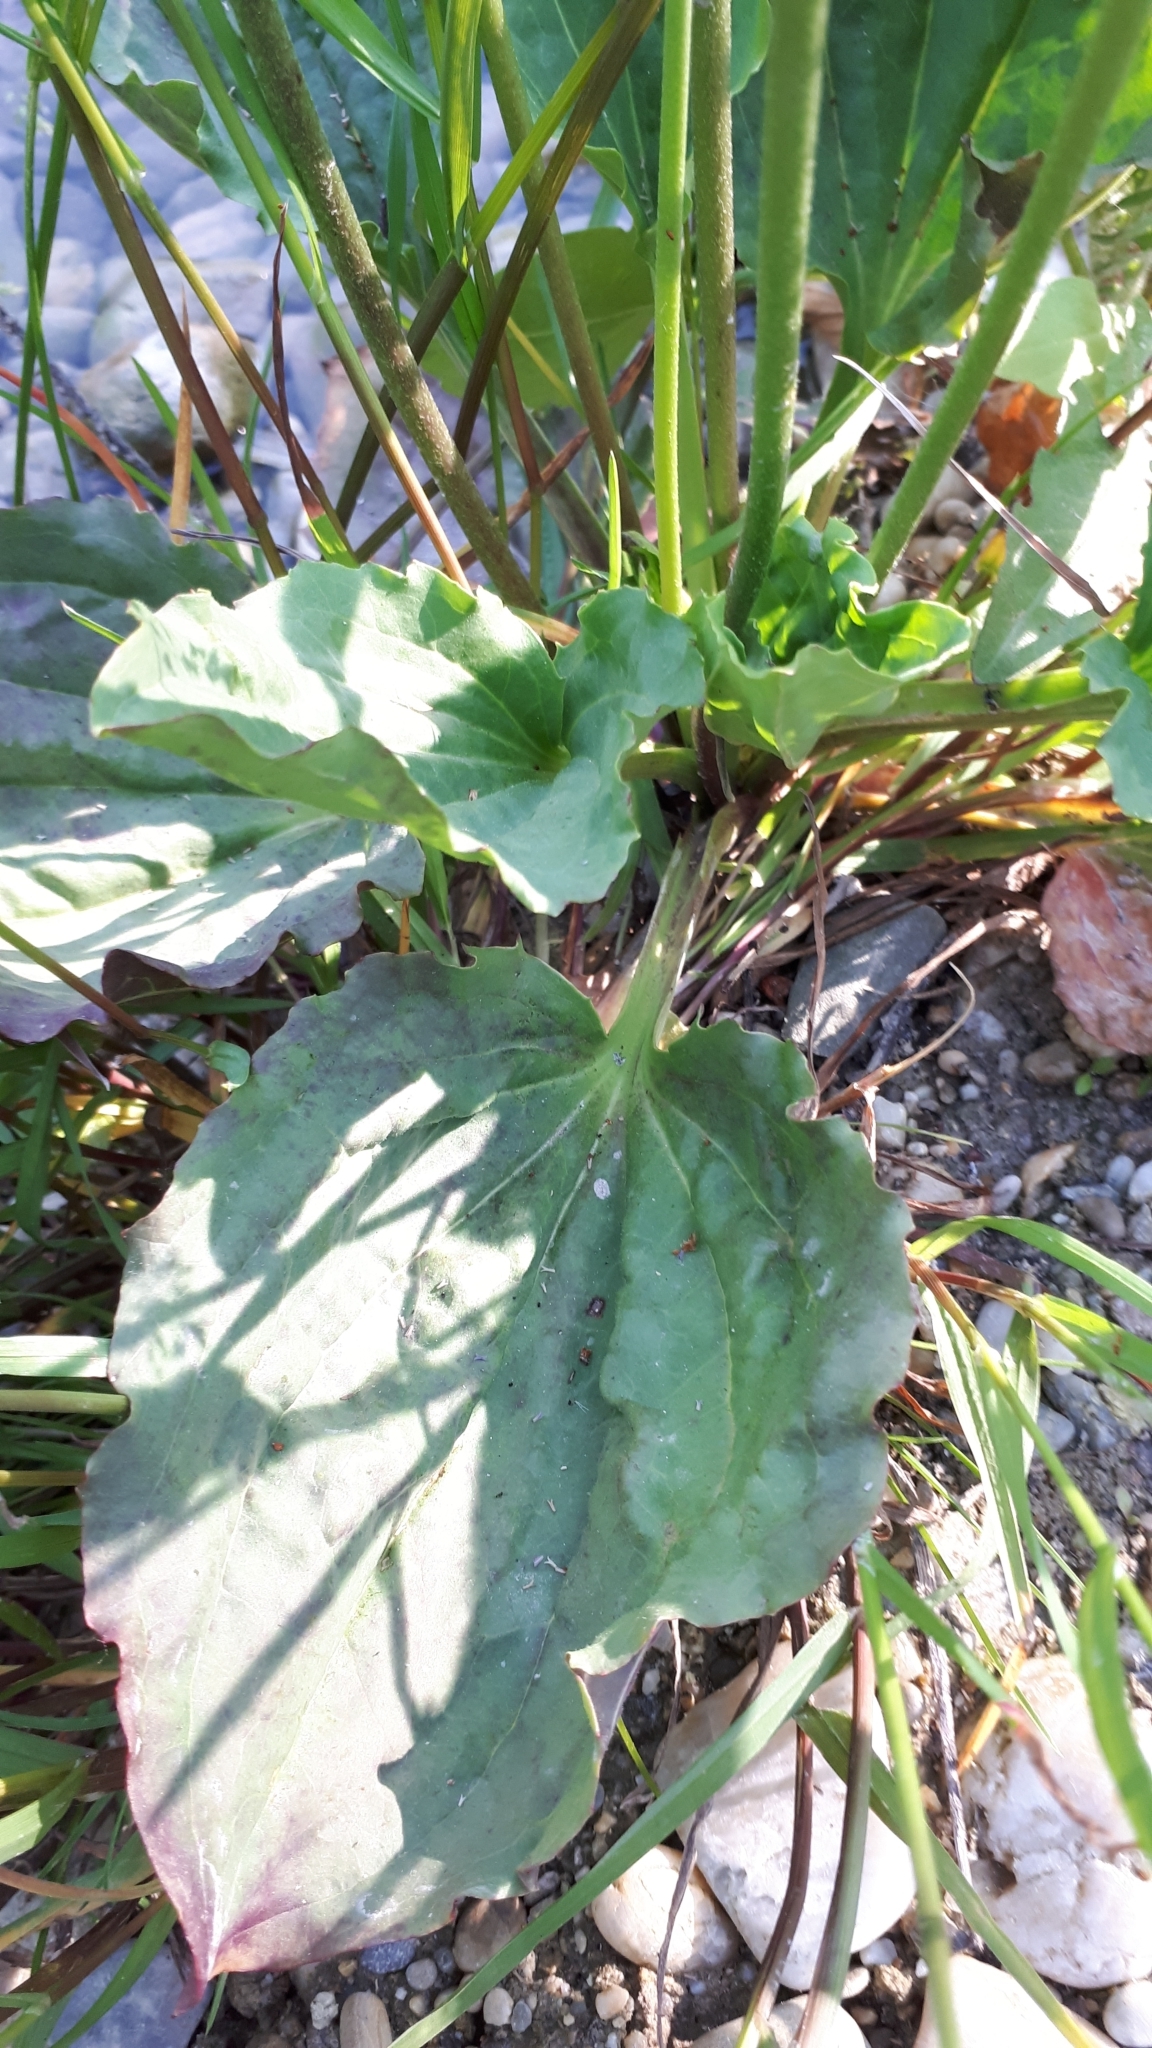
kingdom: Plantae
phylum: Tracheophyta
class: Magnoliopsida
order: Lamiales
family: Plantaginaceae
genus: Plantago
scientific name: Plantago major
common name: Common plantain
